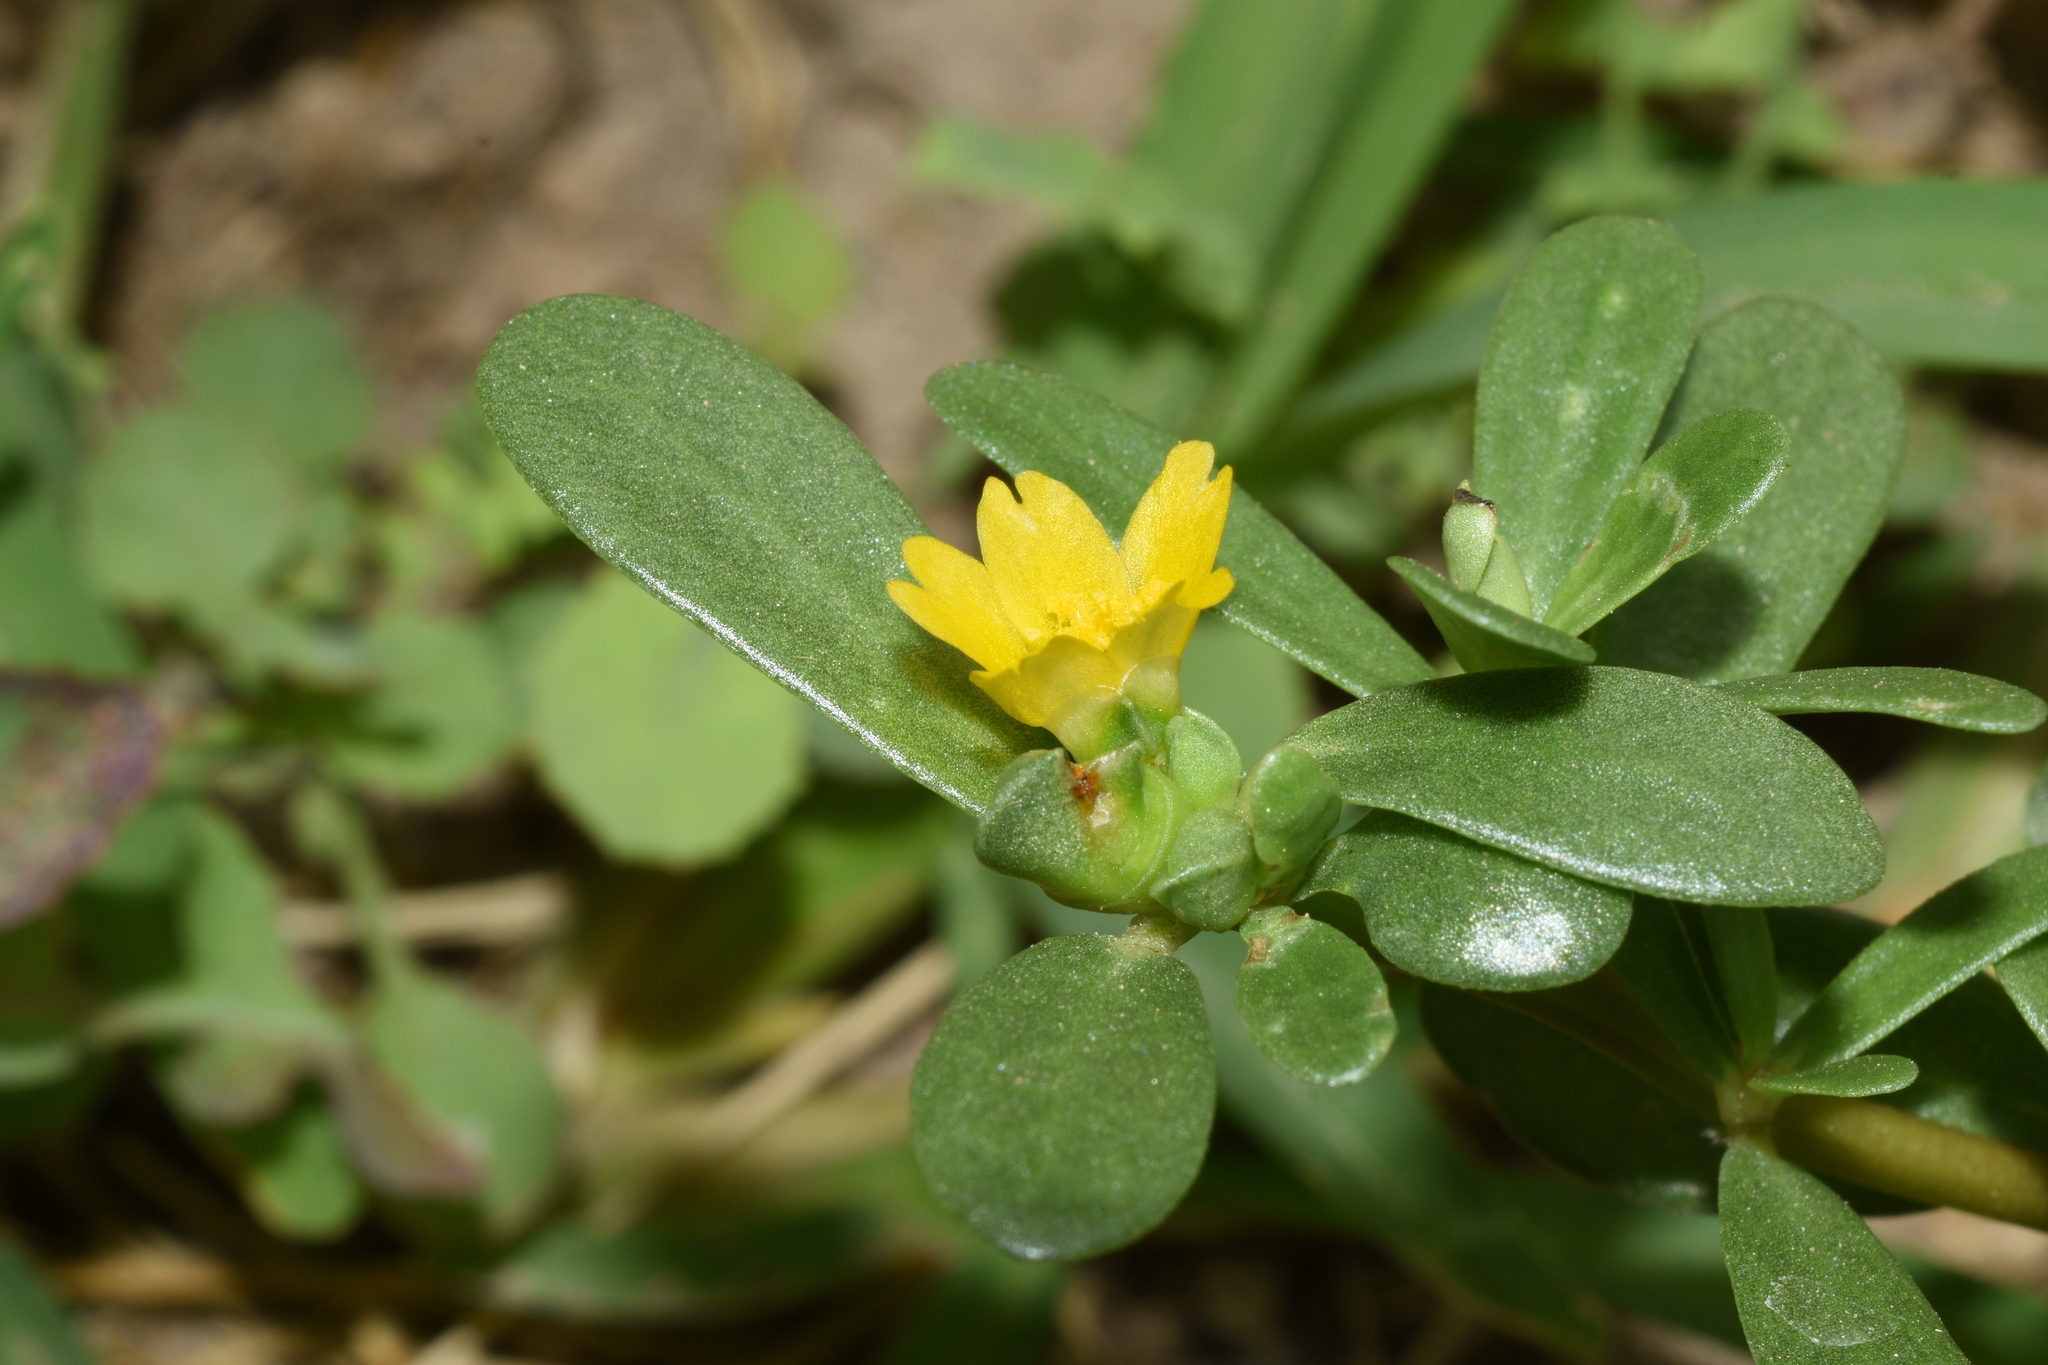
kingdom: Plantae
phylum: Tracheophyta
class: Magnoliopsida
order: Caryophyllales
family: Portulacaceae
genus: Portulaca
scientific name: Portulaca oleracea
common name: Common purslane
